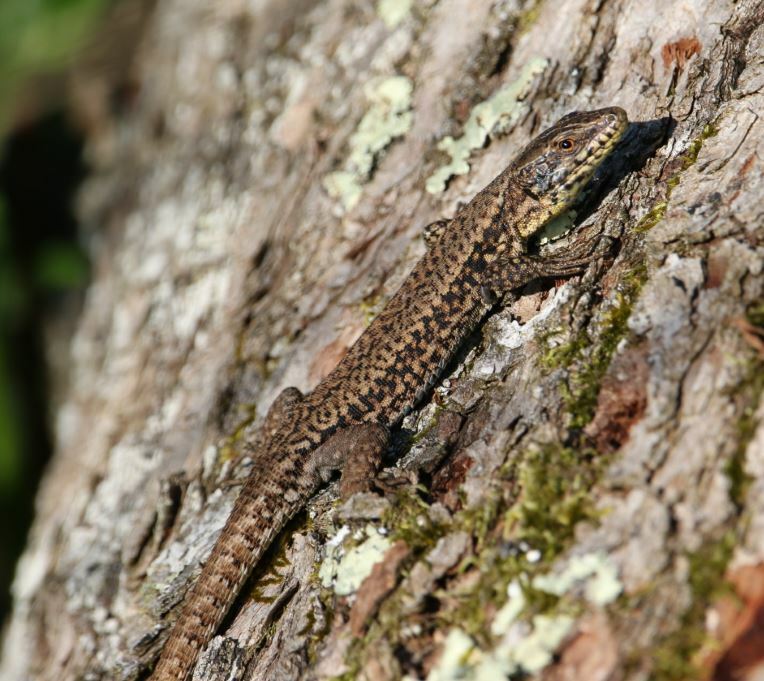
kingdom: Animalia
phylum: Chordata
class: Squamata
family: Lacertidae
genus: Podarcis
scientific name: Podarcis muralis
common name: Common wall lizard
